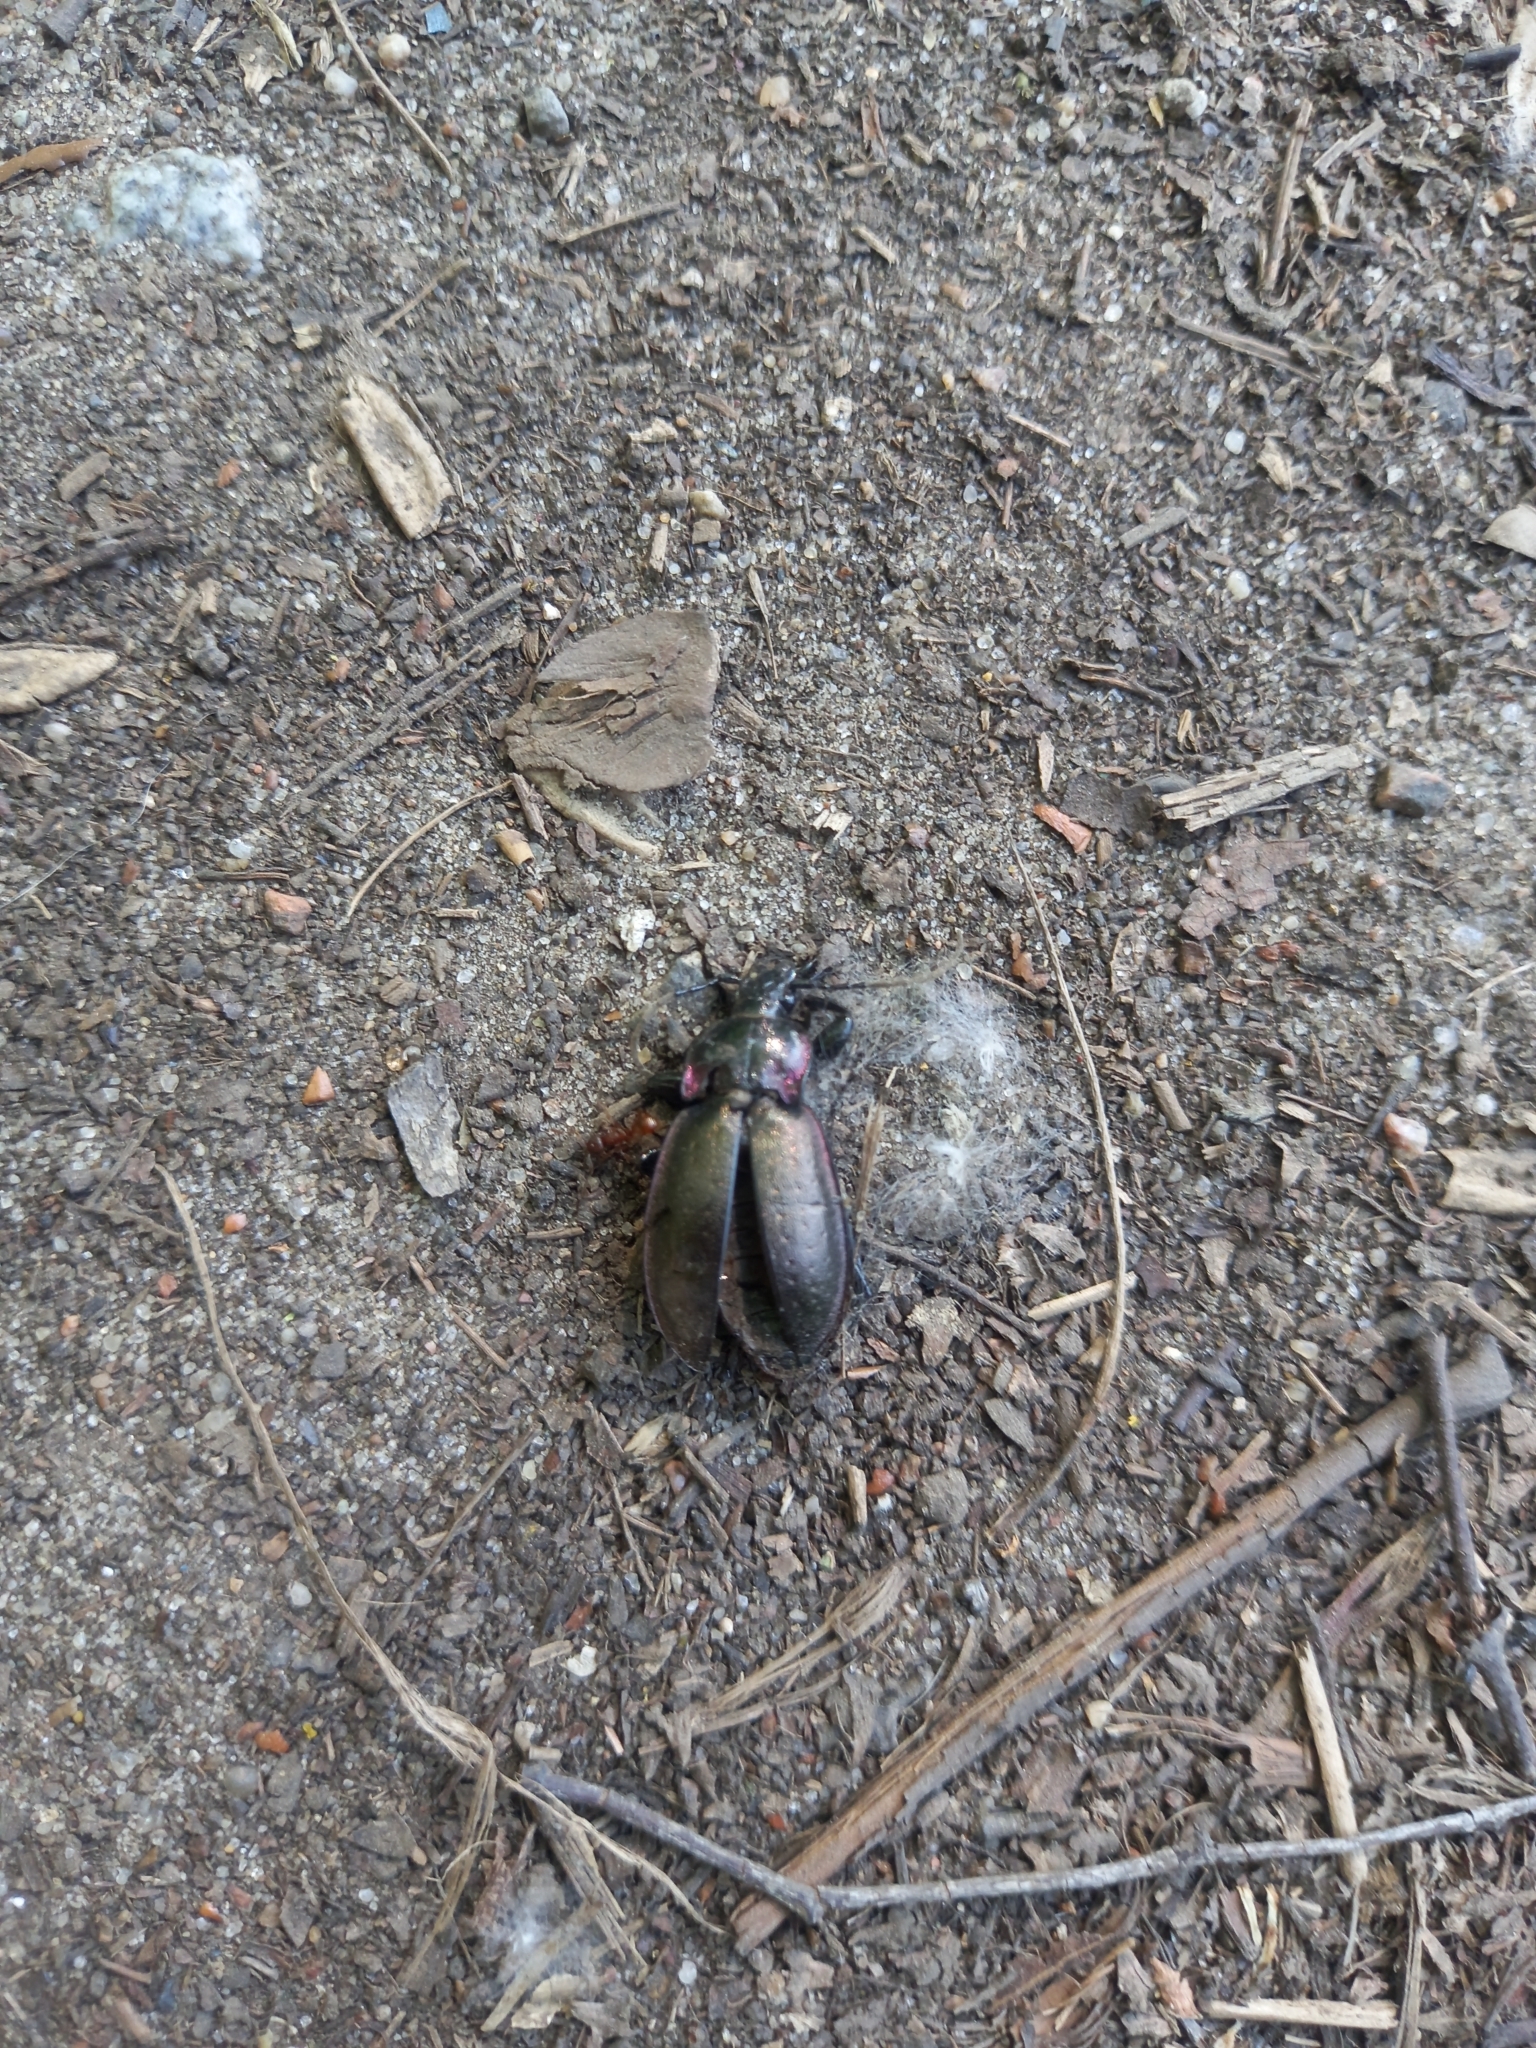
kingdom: Animalia
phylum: Arthropoda
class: Insecta
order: Coleoptera
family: Carabidae
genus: Carabus
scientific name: Carabus nemoralis
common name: European ground beetle
